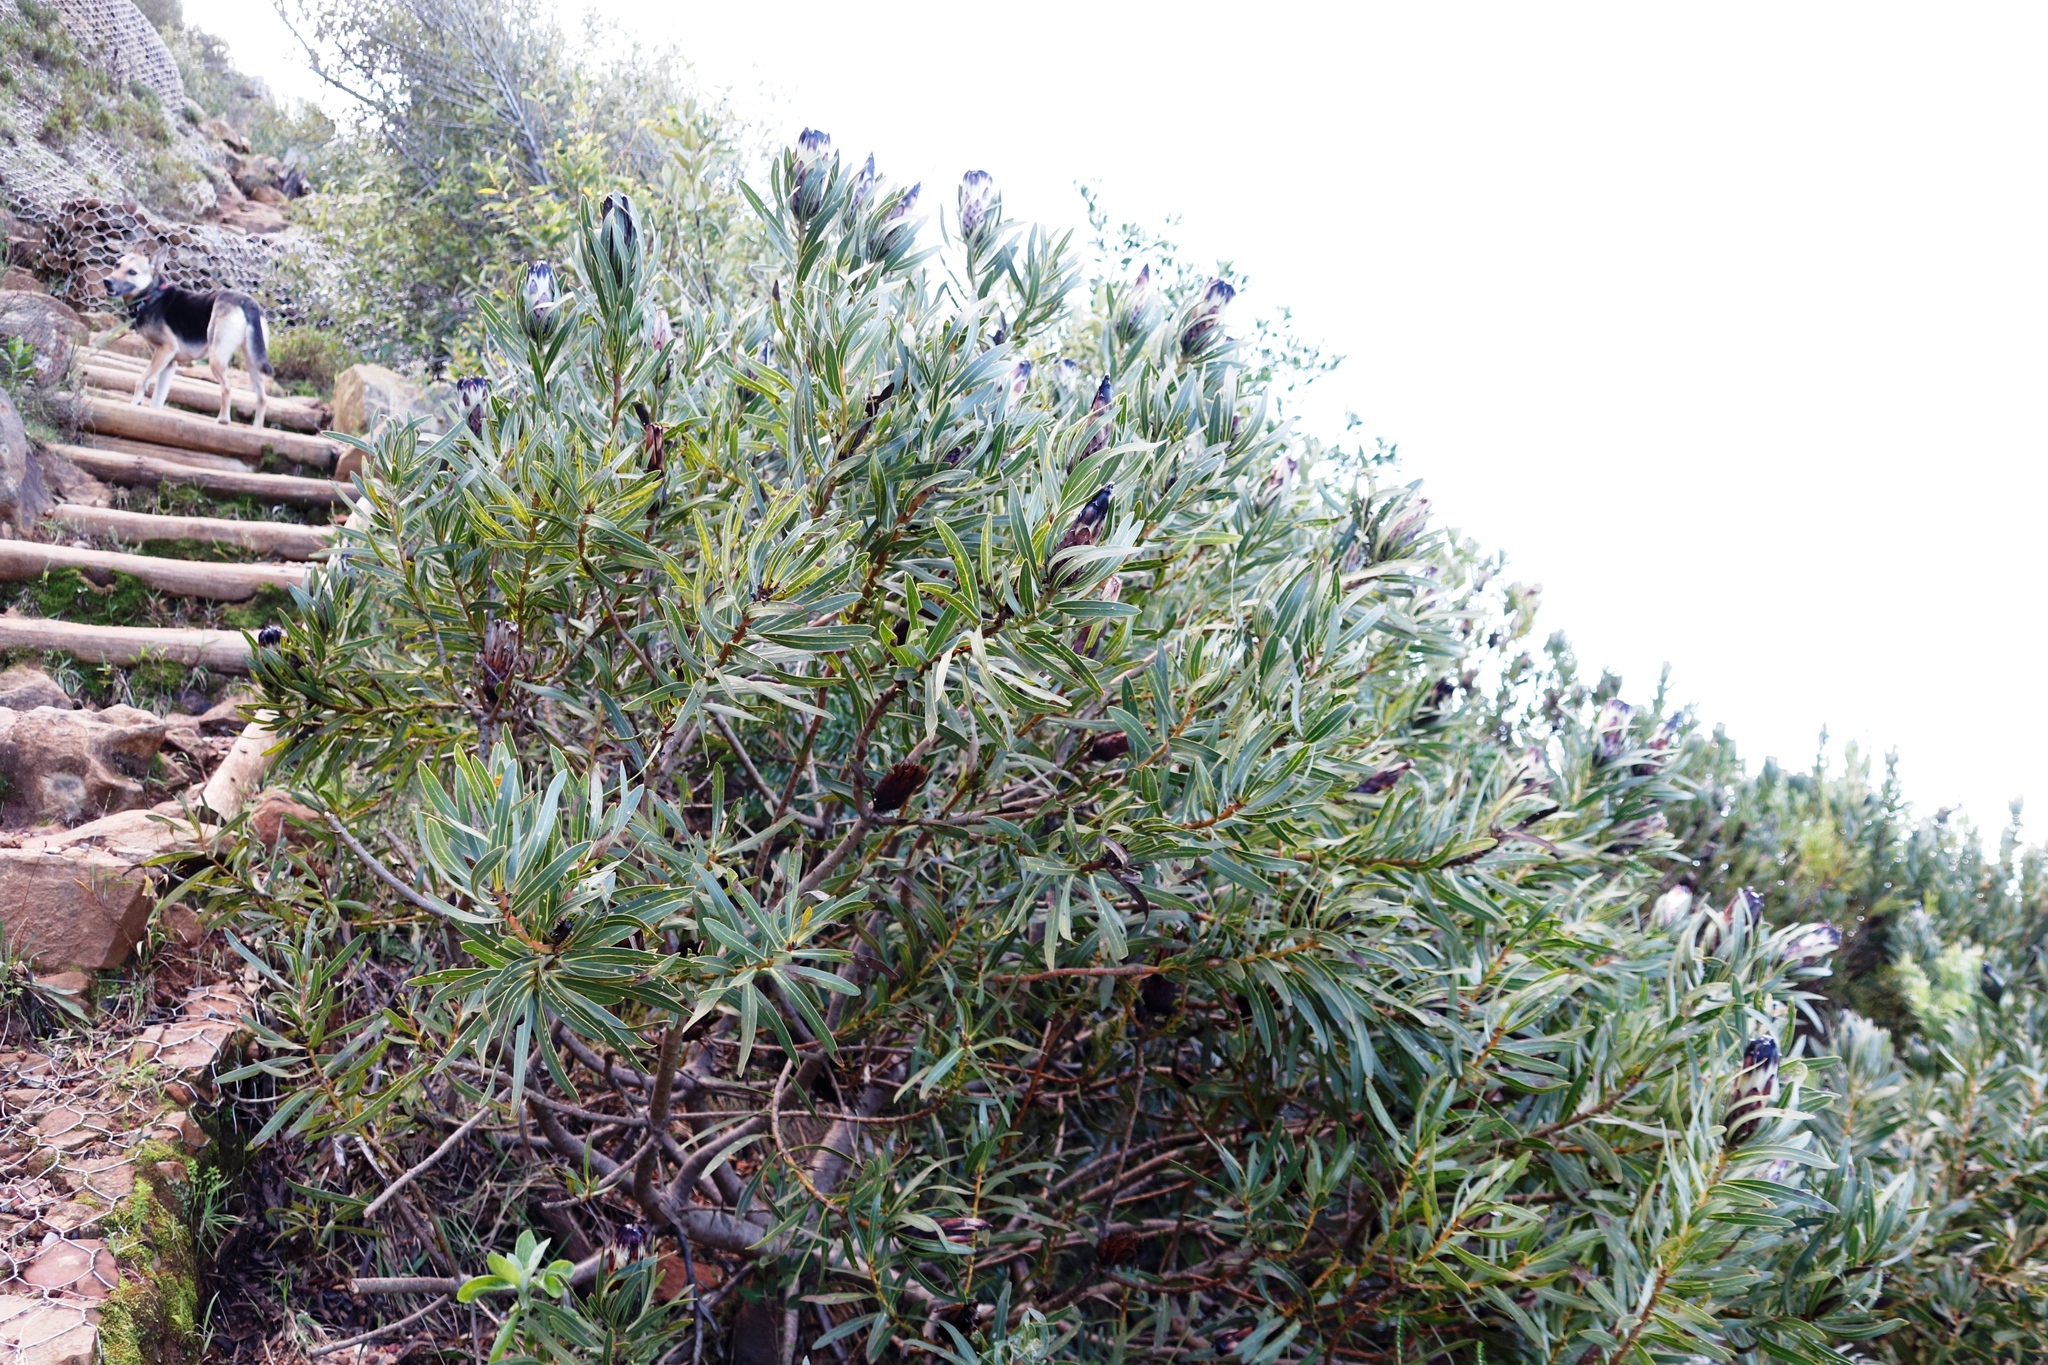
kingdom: Plantae
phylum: Tracheophyta
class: Magnoliopsida
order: Proteales
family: Proteaceae
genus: Protea
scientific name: Protea lepidocarpodendron
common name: Black-bearded protea
